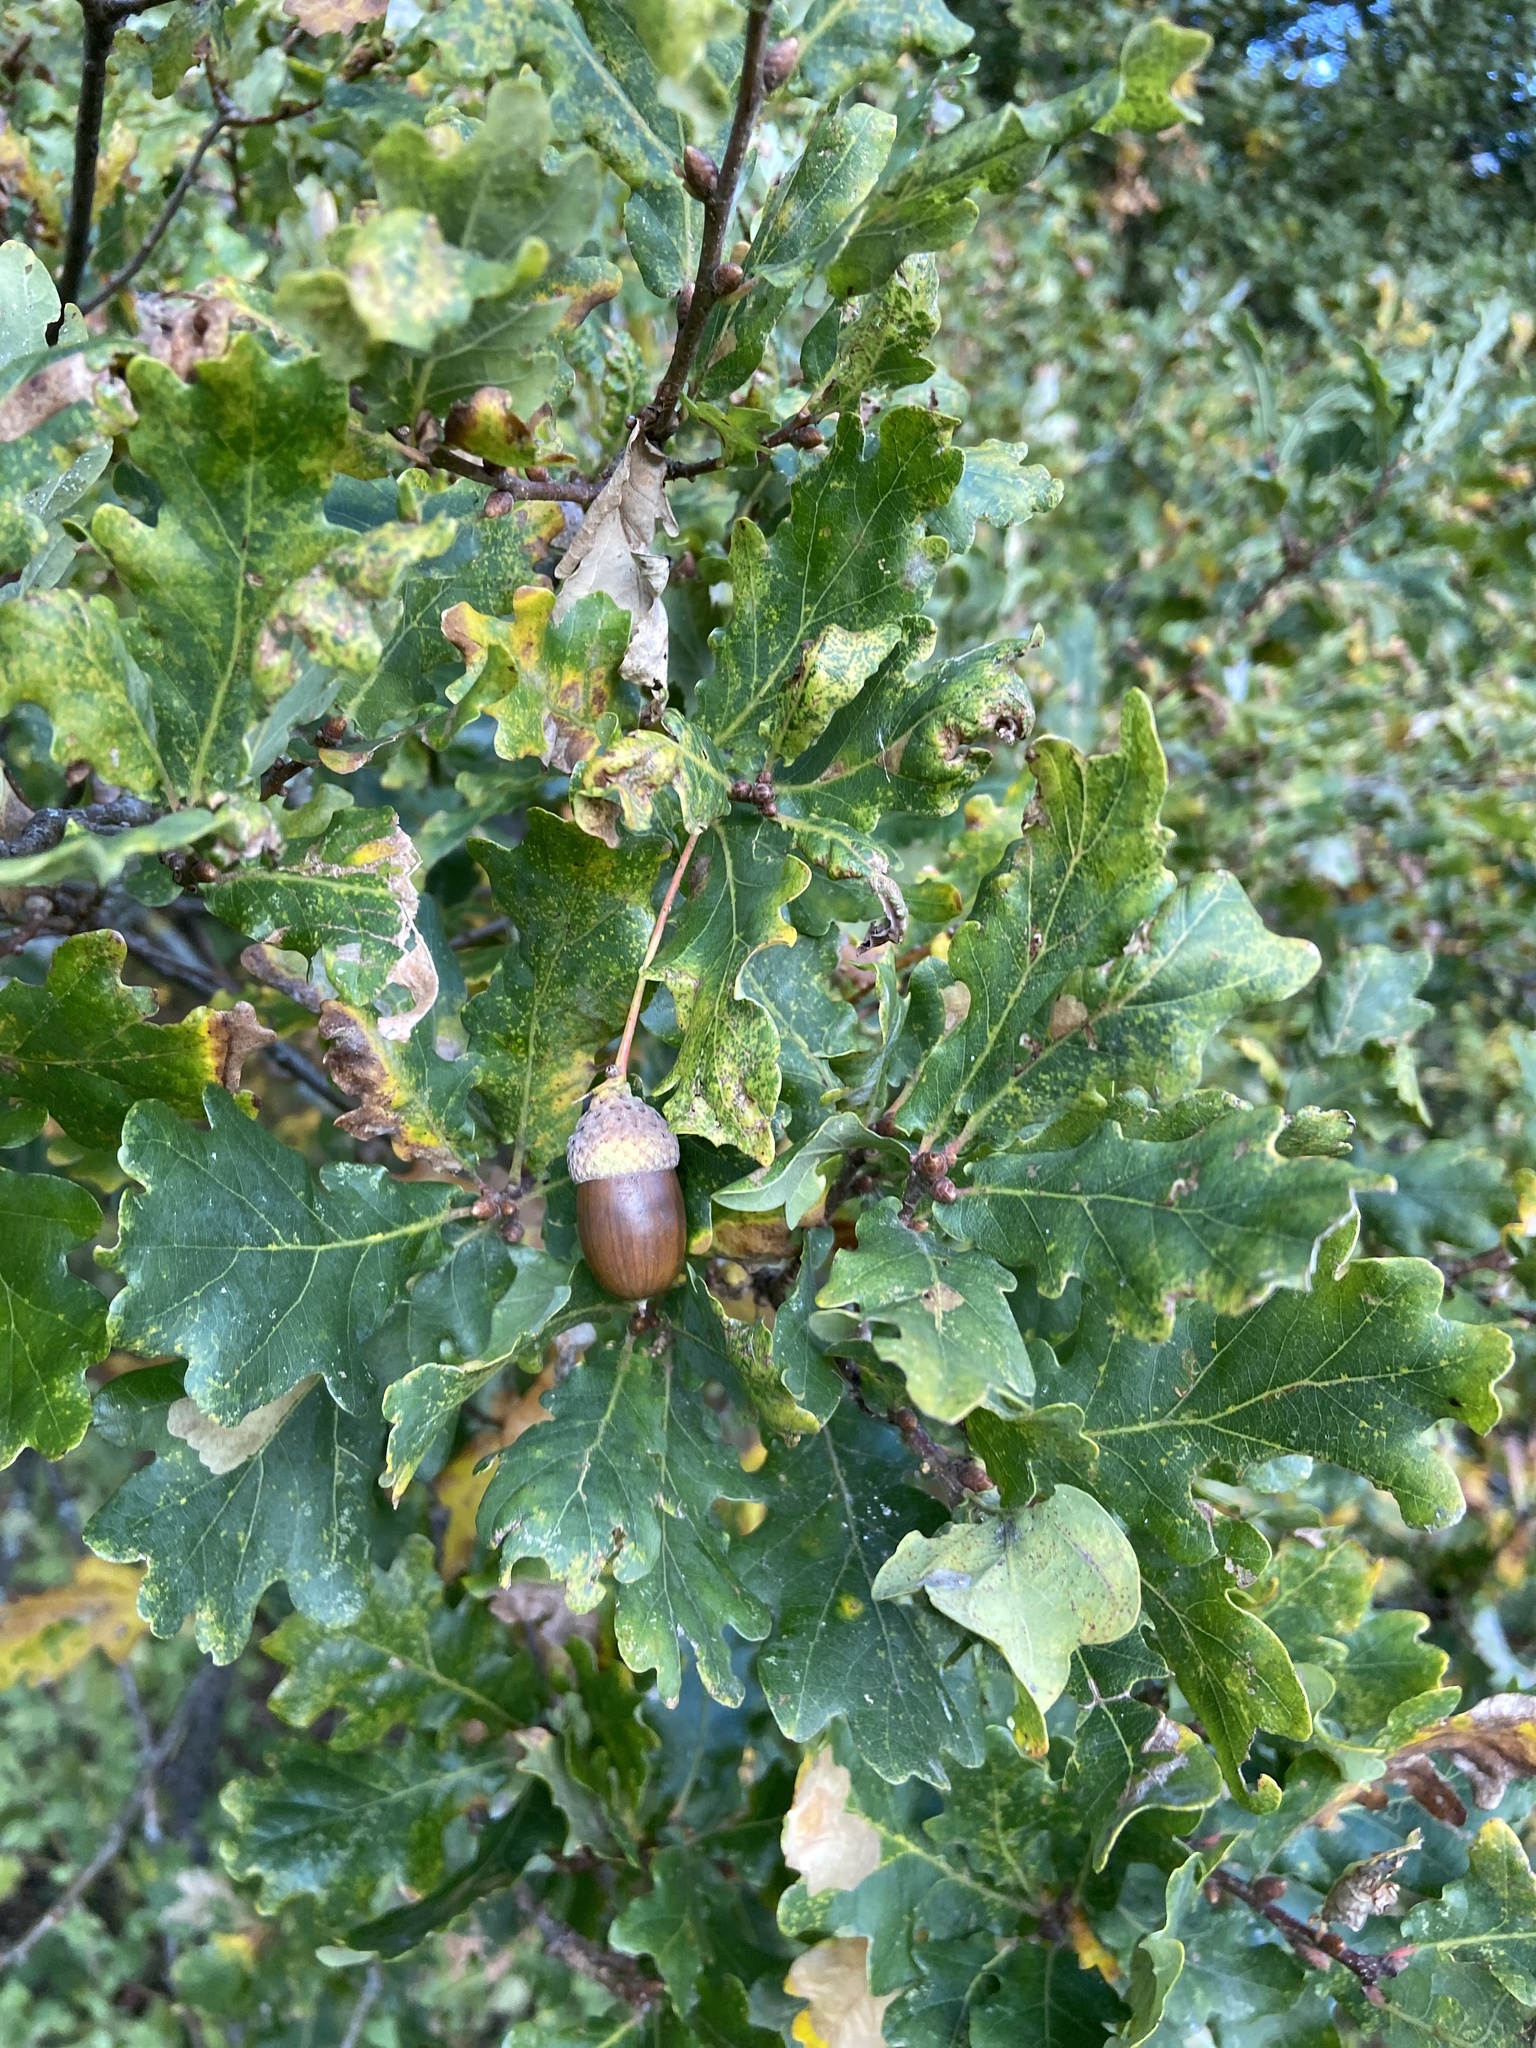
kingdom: Plantae
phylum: Tracheophyta
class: Magnoliopsida
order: Fagales
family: Fagaceae
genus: Quercus
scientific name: Quercus robur
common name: Pedunculate oak
